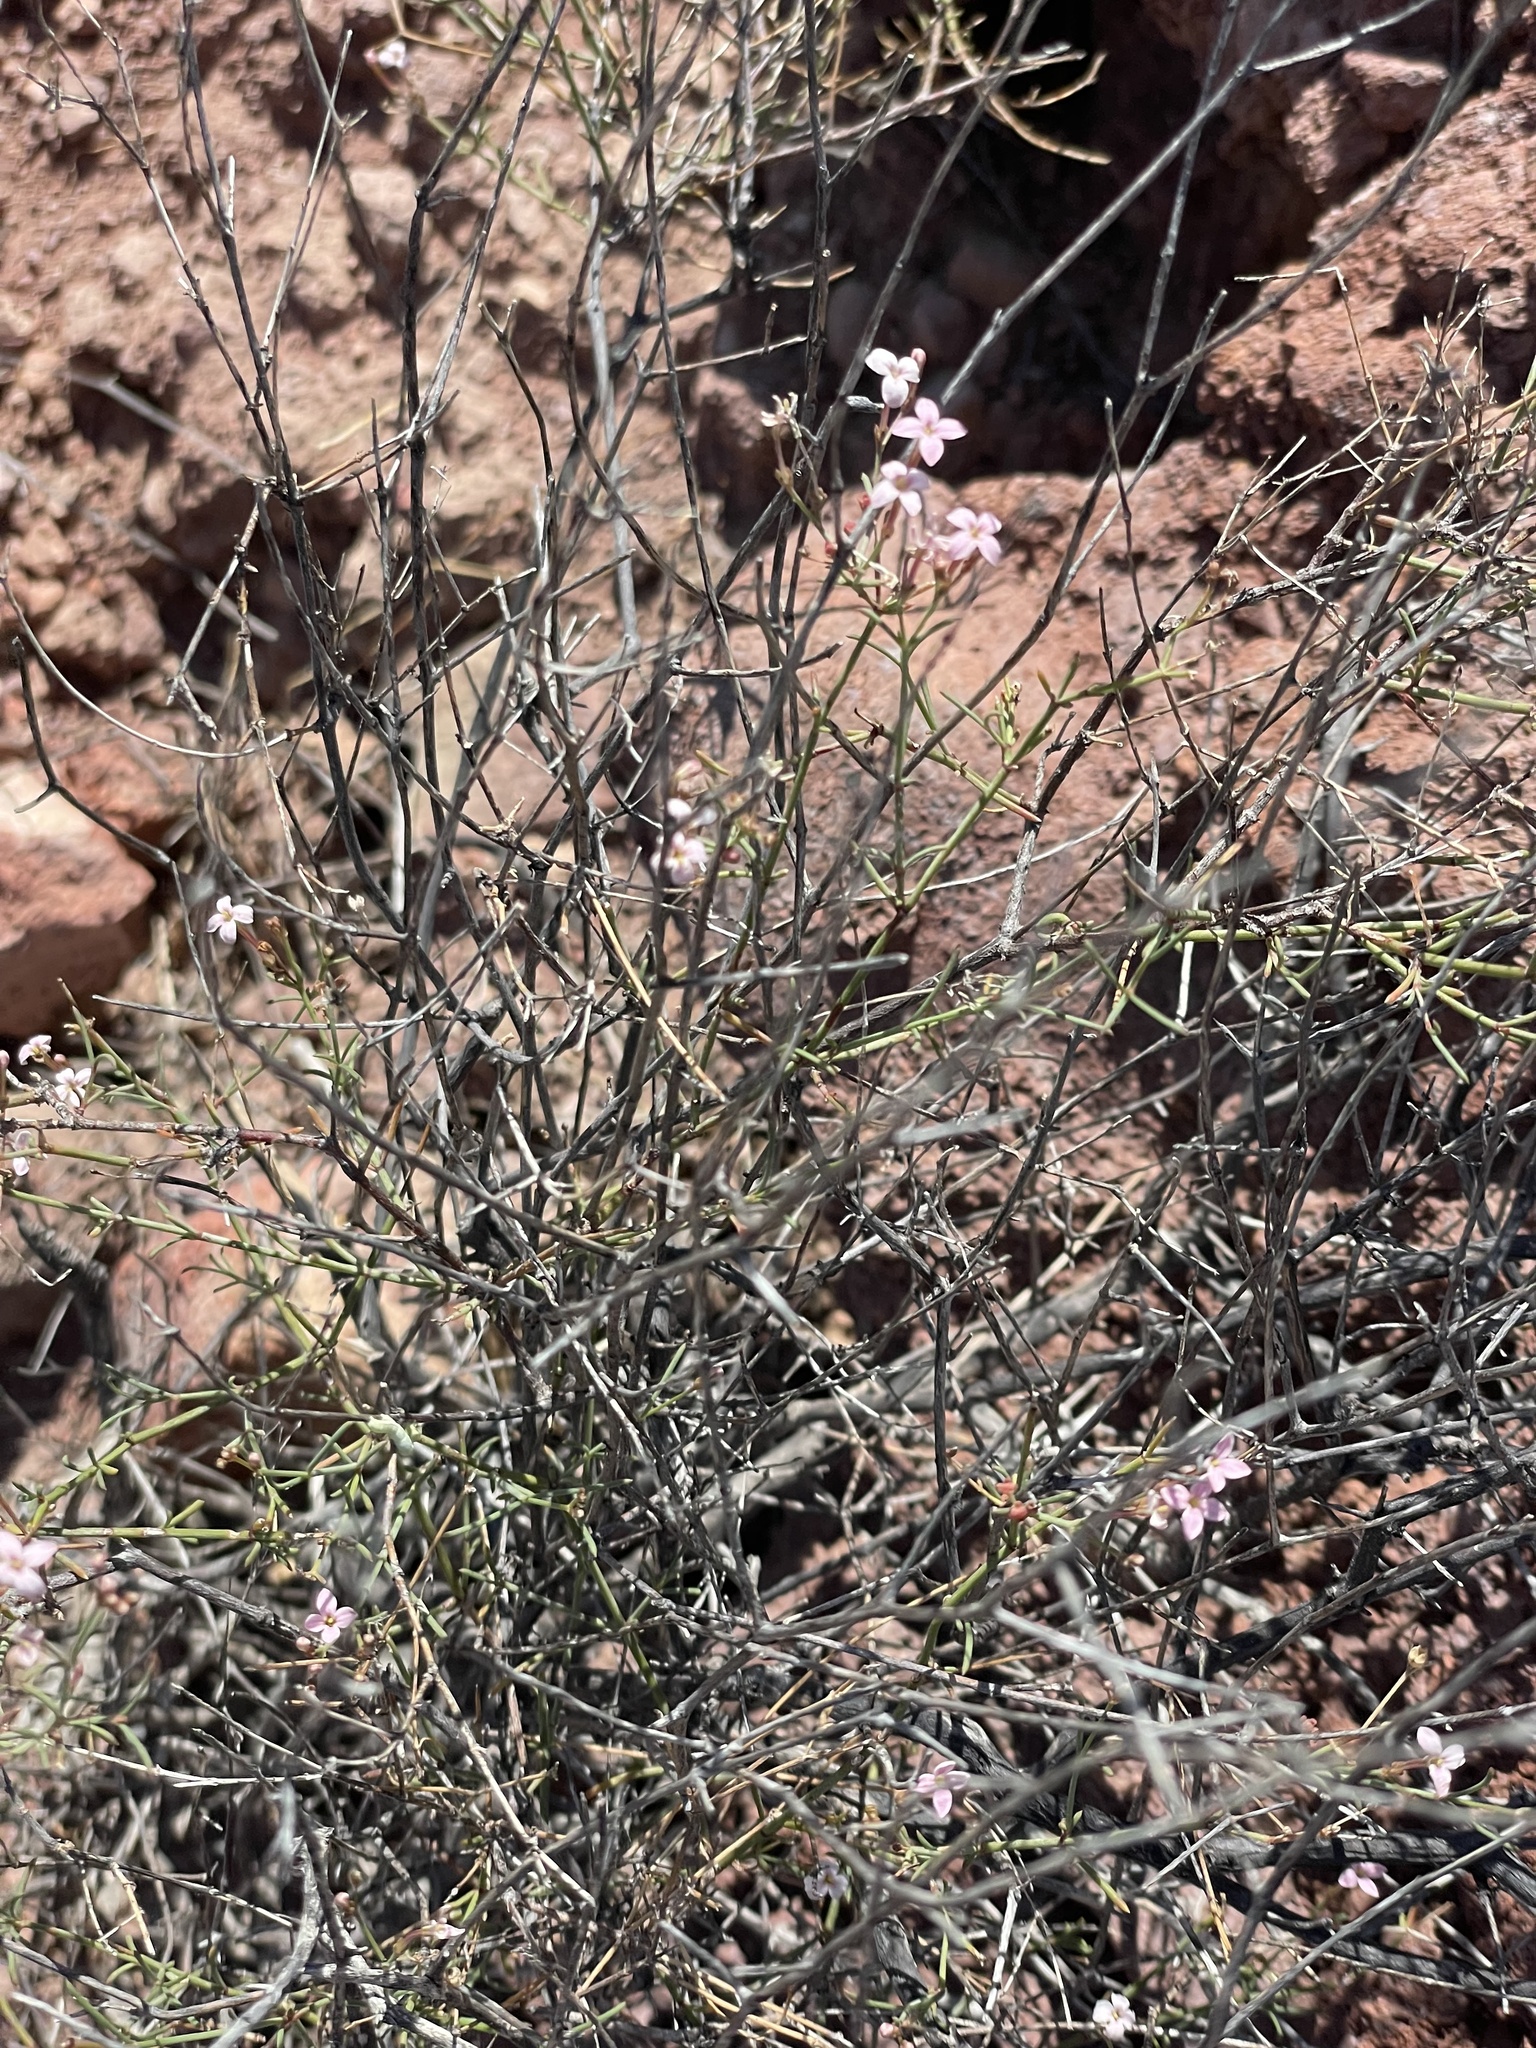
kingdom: Plantae
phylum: Tracheophyta
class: Magnoliopsida
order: Gentianales
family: Rubiaceae
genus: Stenotis
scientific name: Stenotis brevipes
